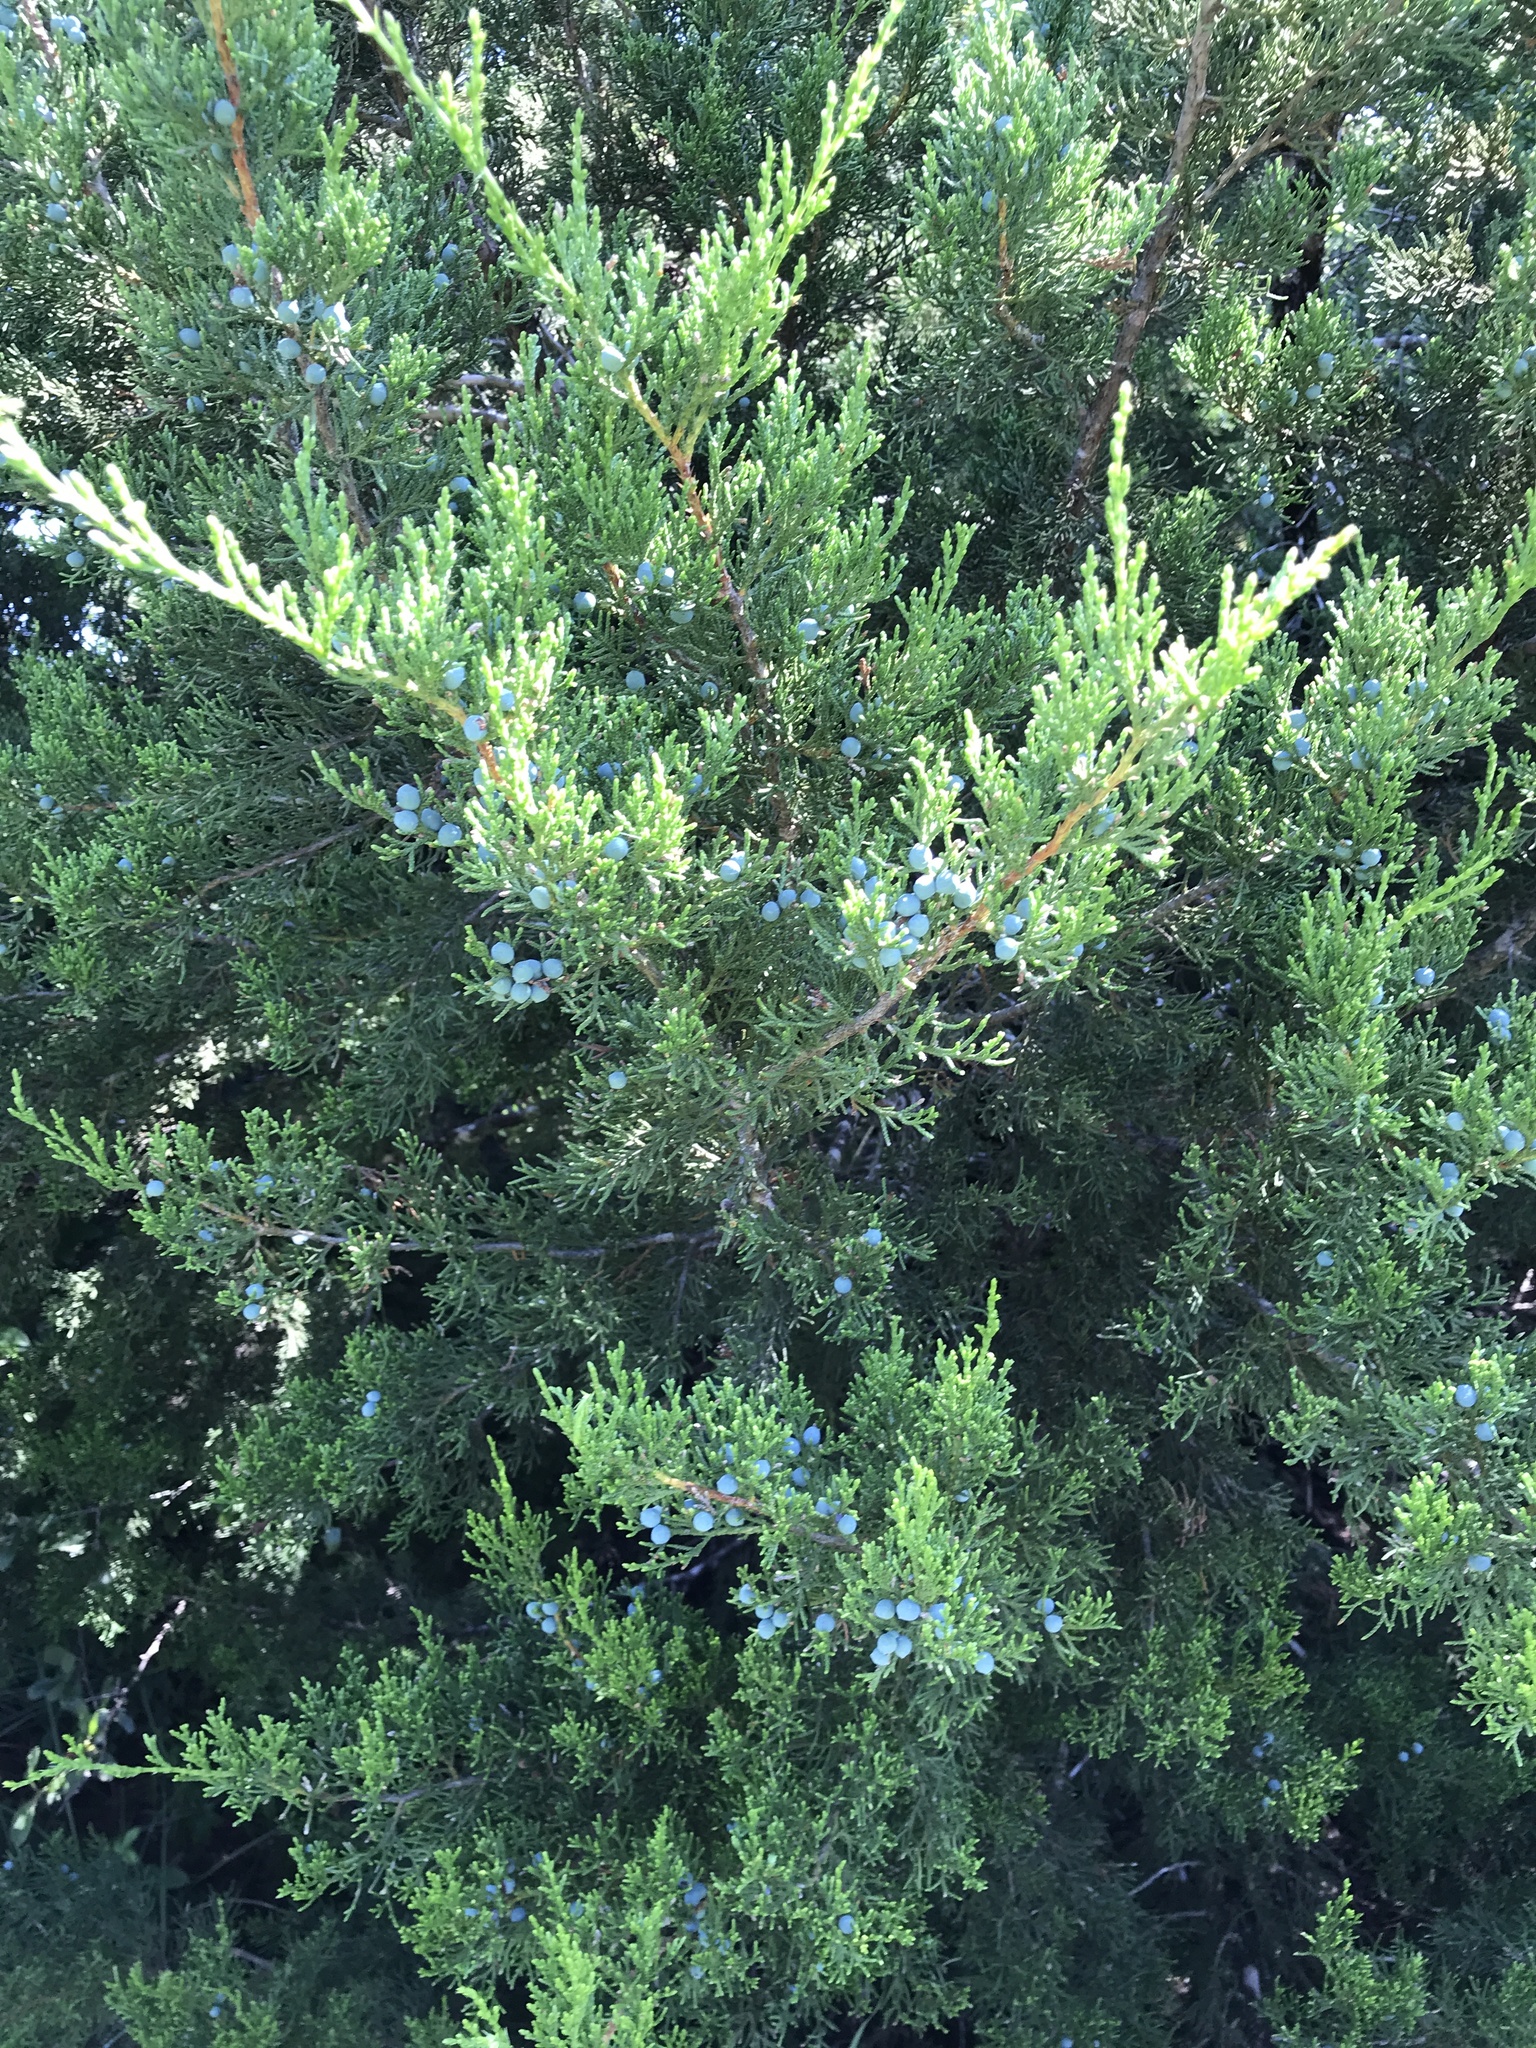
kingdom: Plantae
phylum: Tracheophyta
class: Pinopsida
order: Pinales
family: Cupressaceae
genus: Juniperus
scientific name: Juniperus ashei
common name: Mexican juniper
